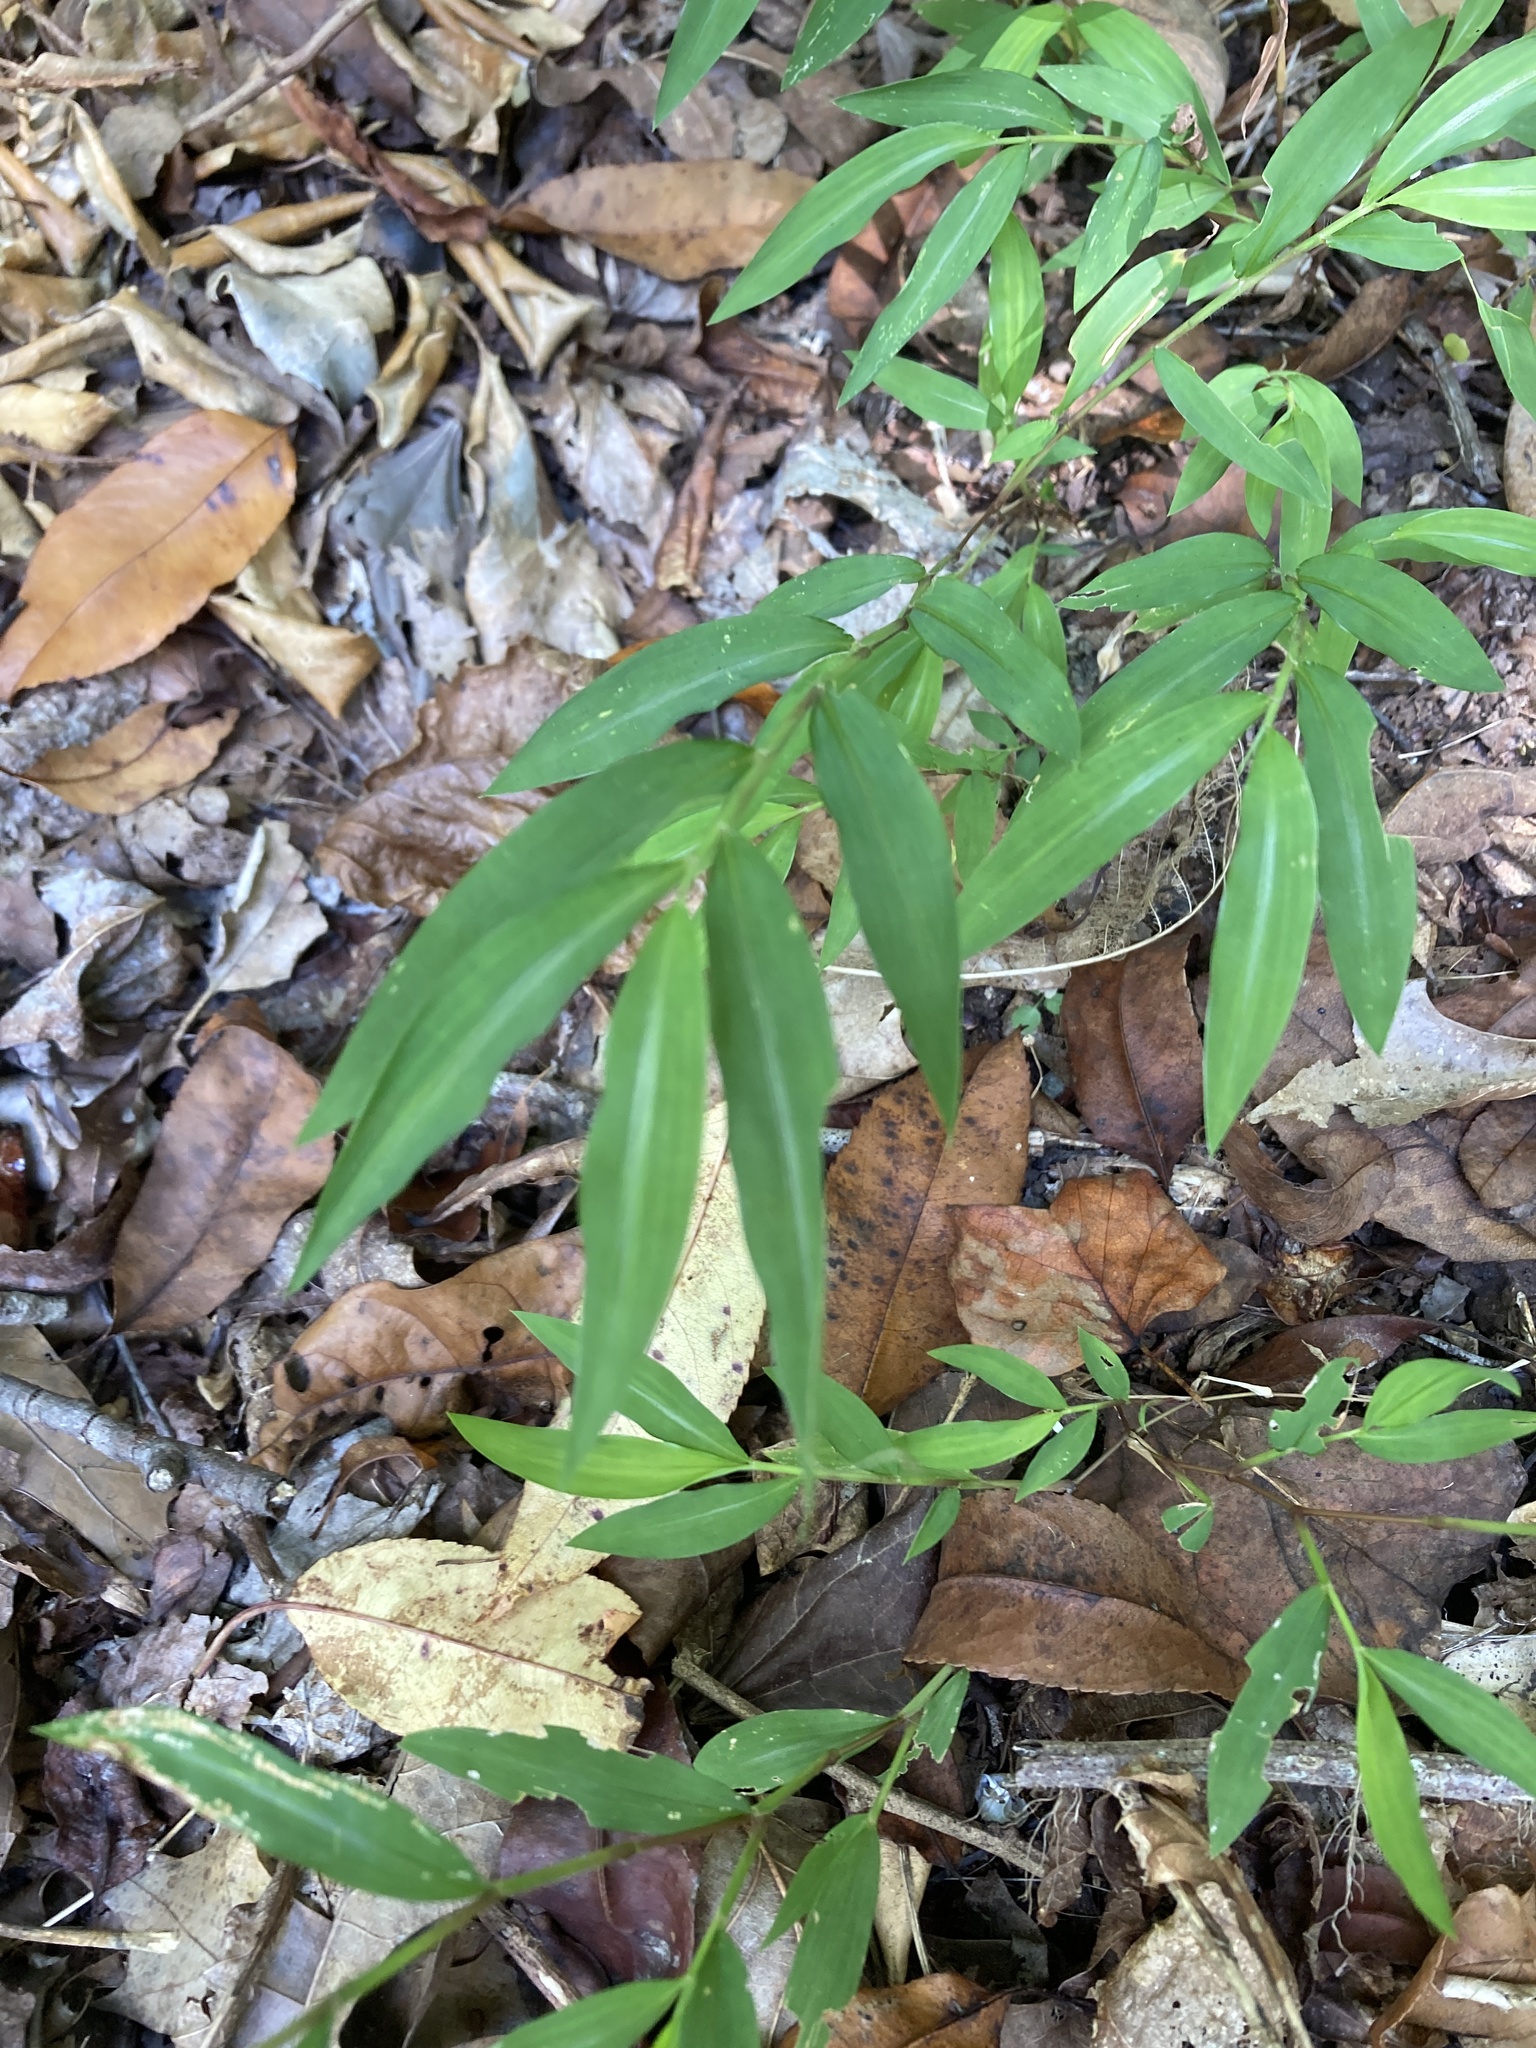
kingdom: Plantae
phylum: Tracheophyta
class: Liliopsida
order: Poales
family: Poaceae
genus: Microstegium
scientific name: Microstegium vimineum
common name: Japanese stiltgrass
